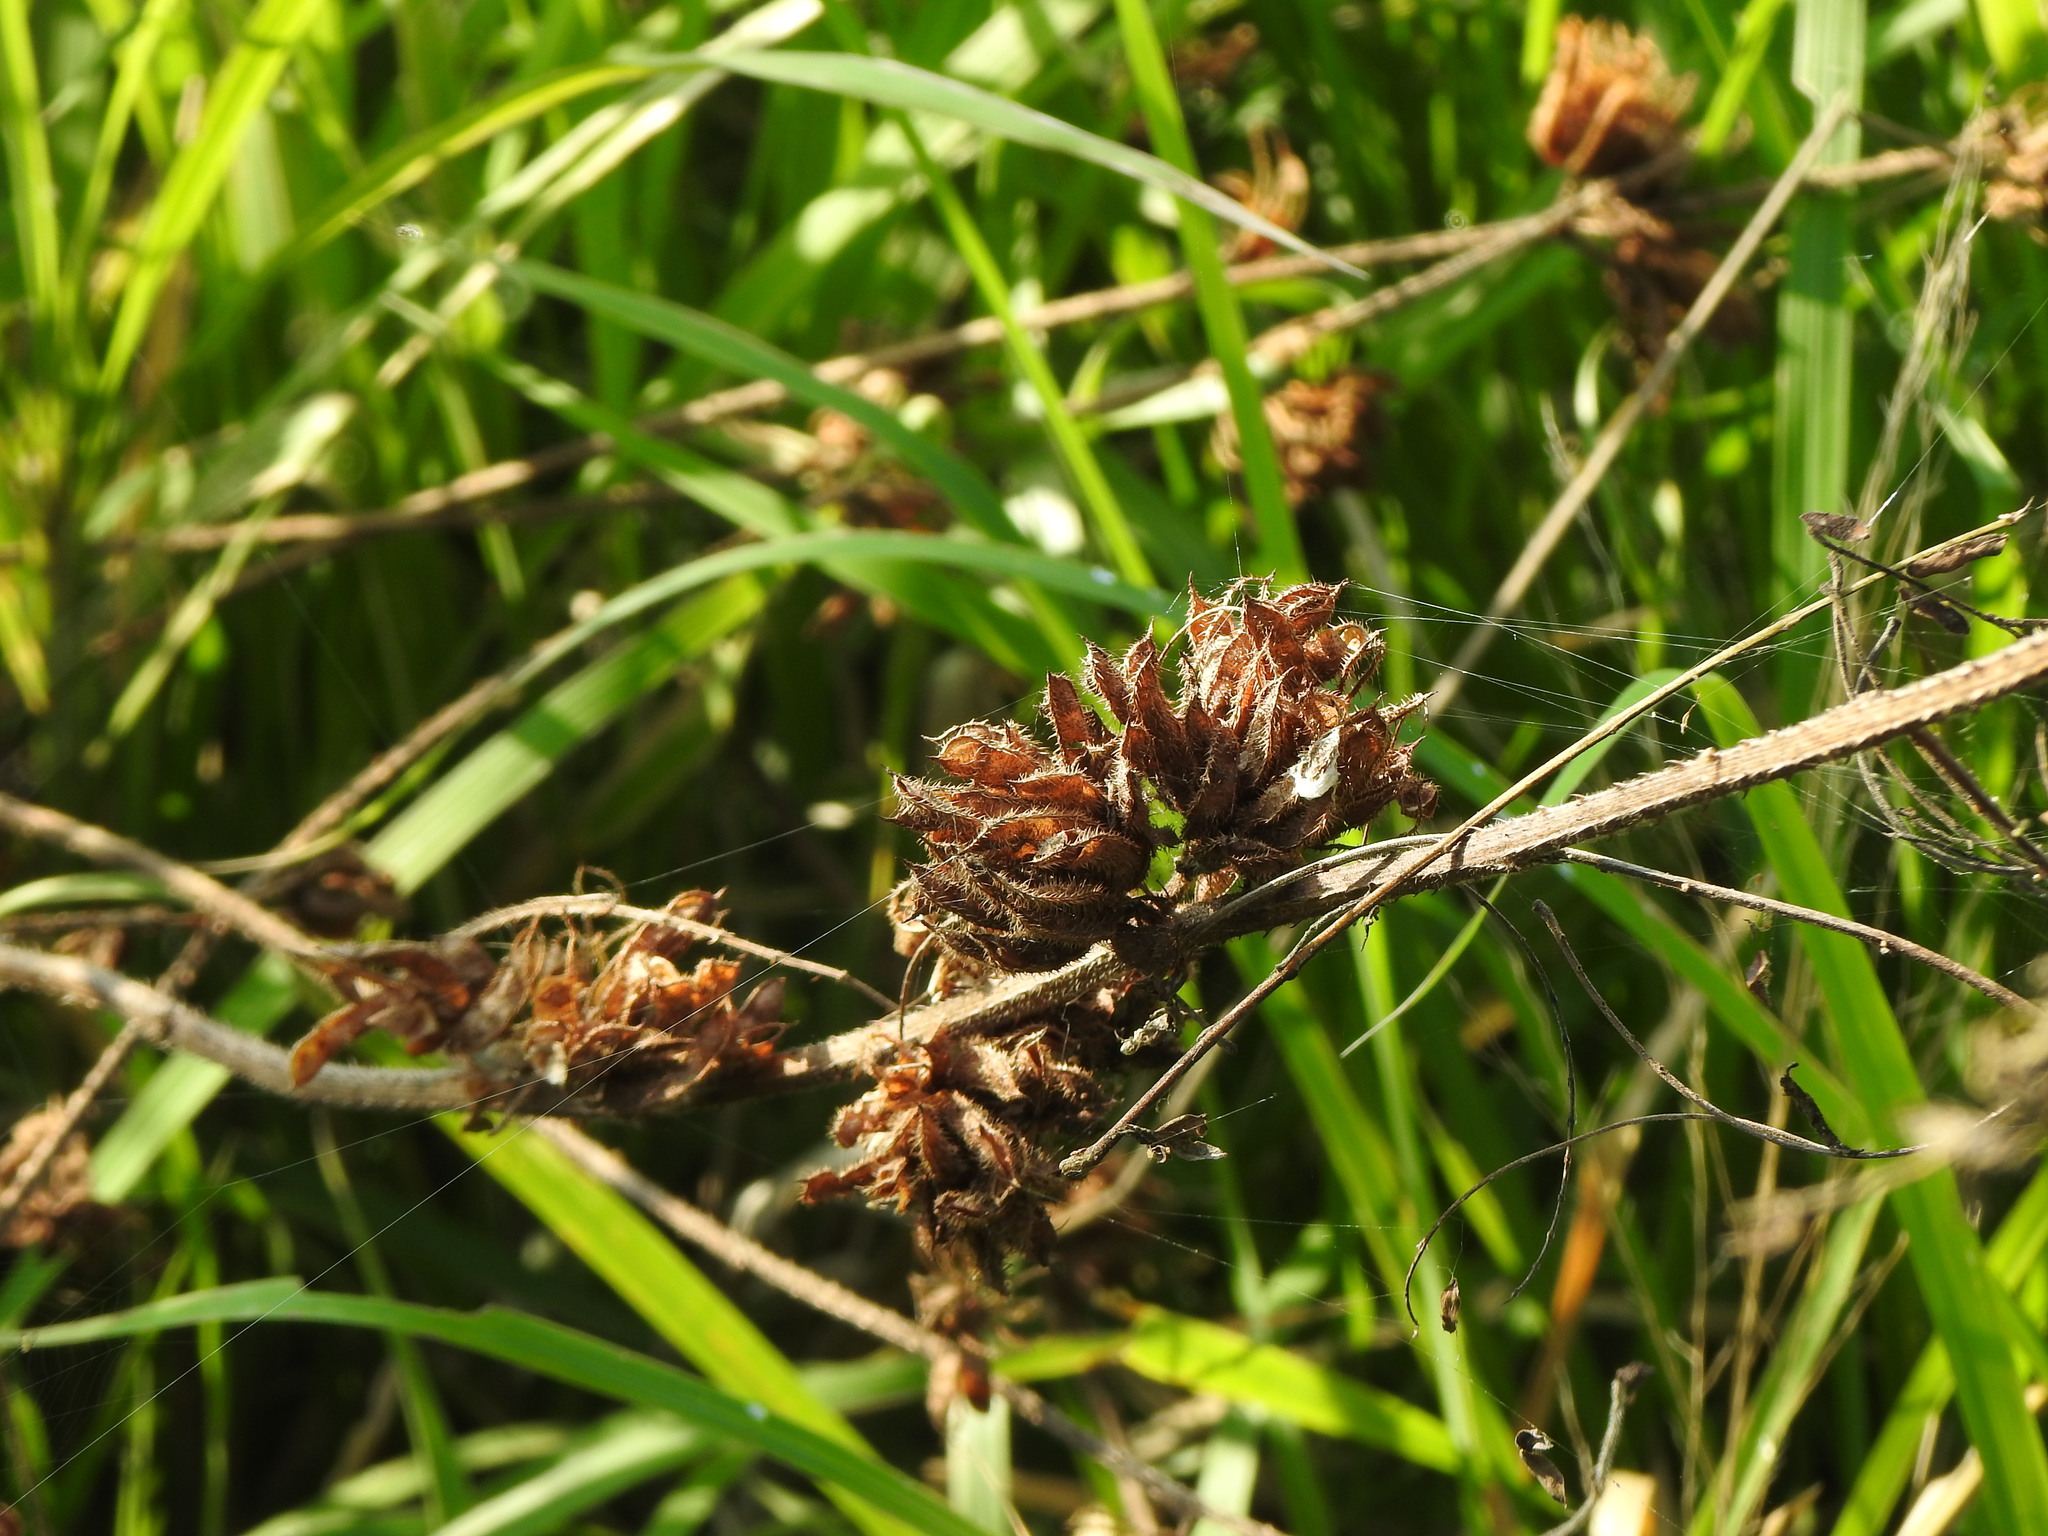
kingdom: Plantae
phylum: Tracheophyta
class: Magnoliopsida
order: Fabales
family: Fabaceae
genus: Mimosa
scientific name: Mimosa diplotricha
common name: Giant sensitive-plant
